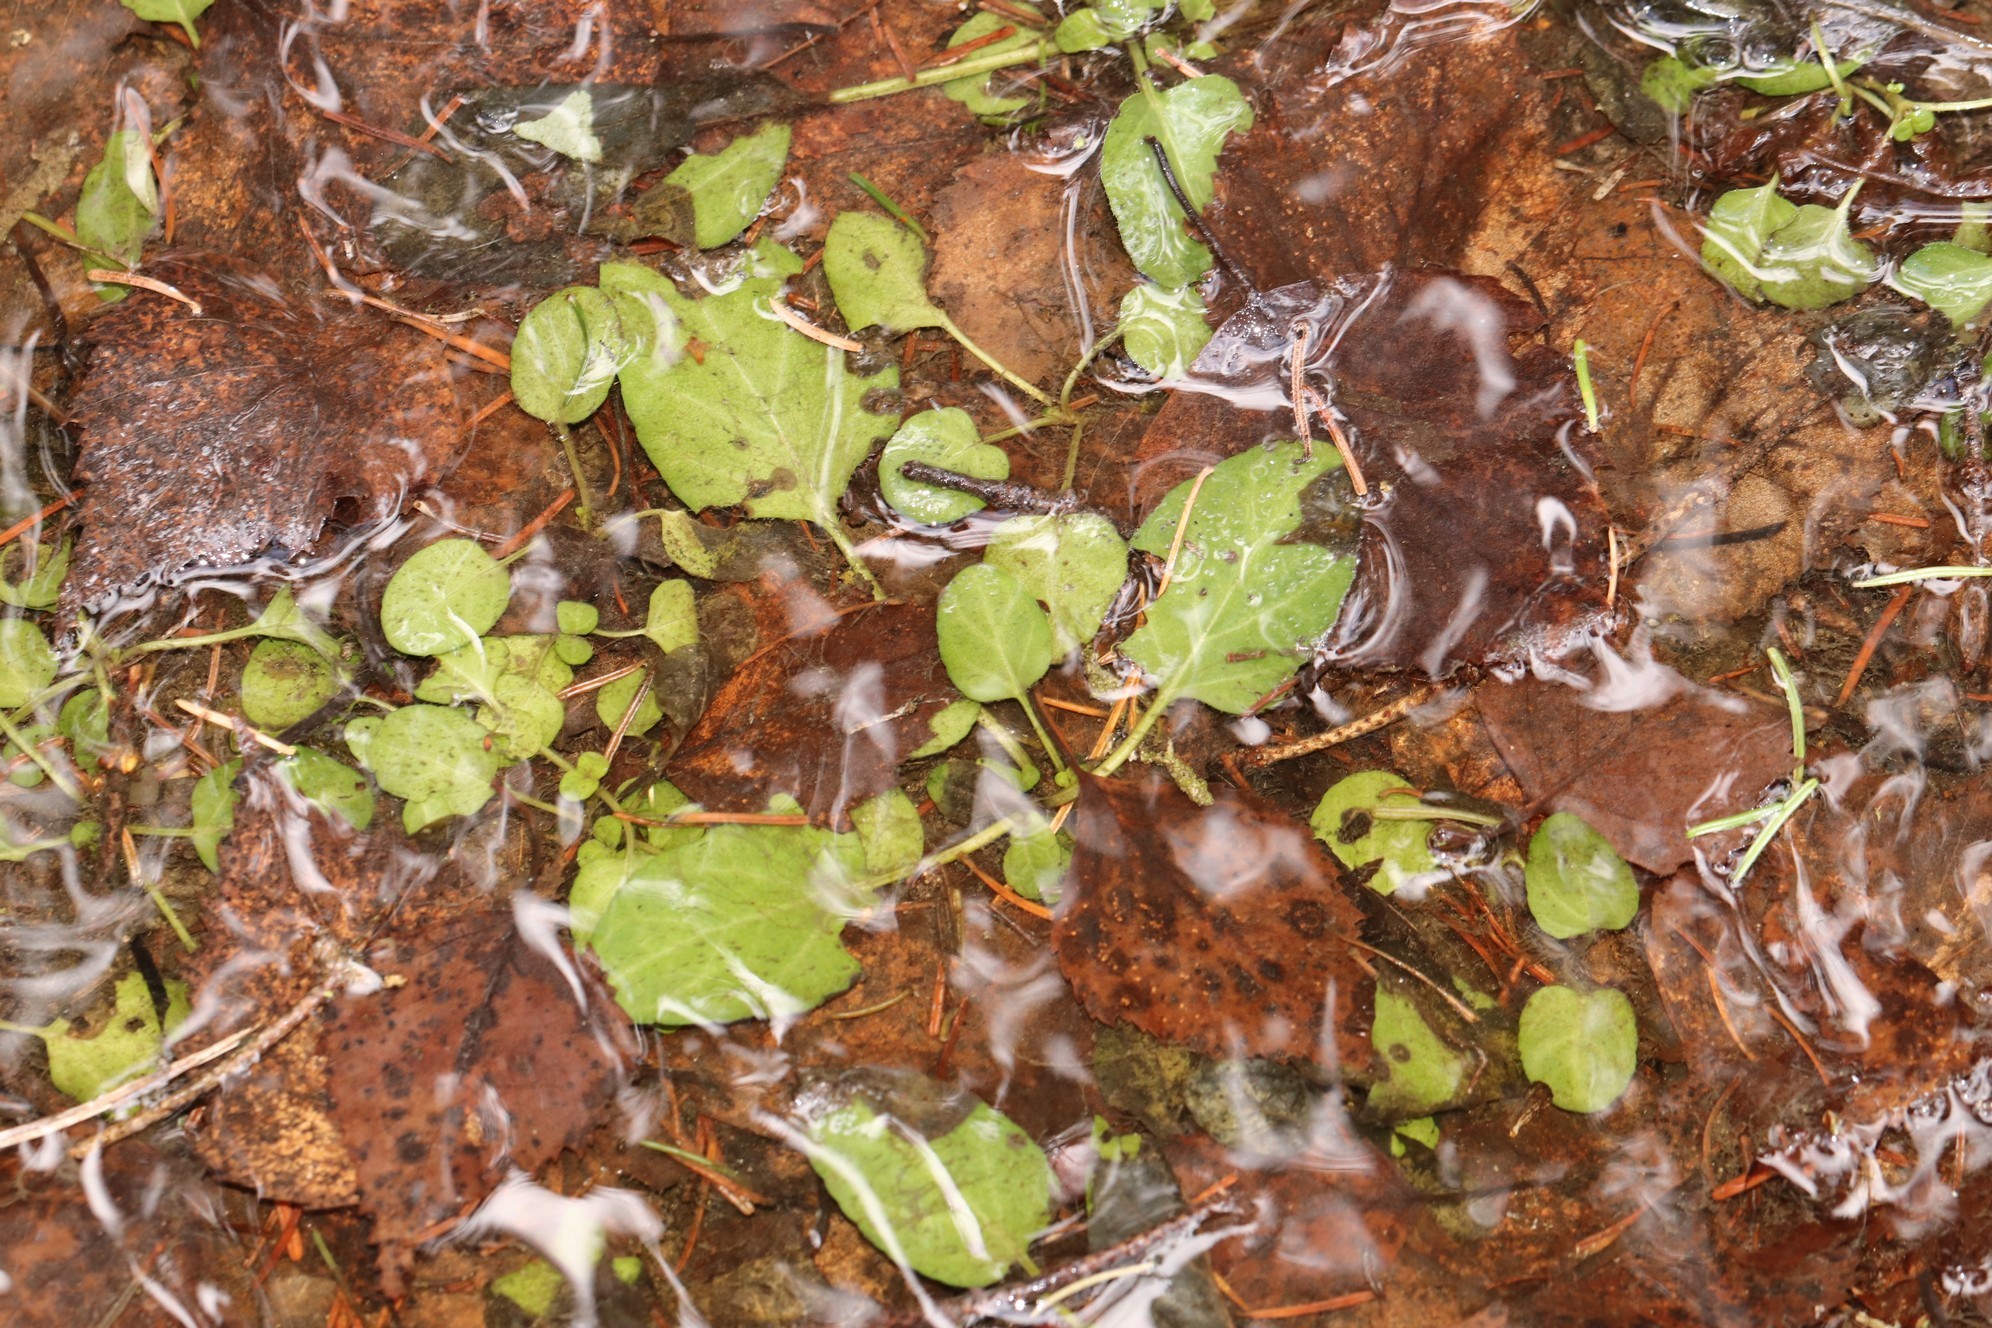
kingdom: Plantae
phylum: Tracheophyta
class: Magnoliopsida
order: Ericales
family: Ericaceae
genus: Pyrola
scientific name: Pyrola
